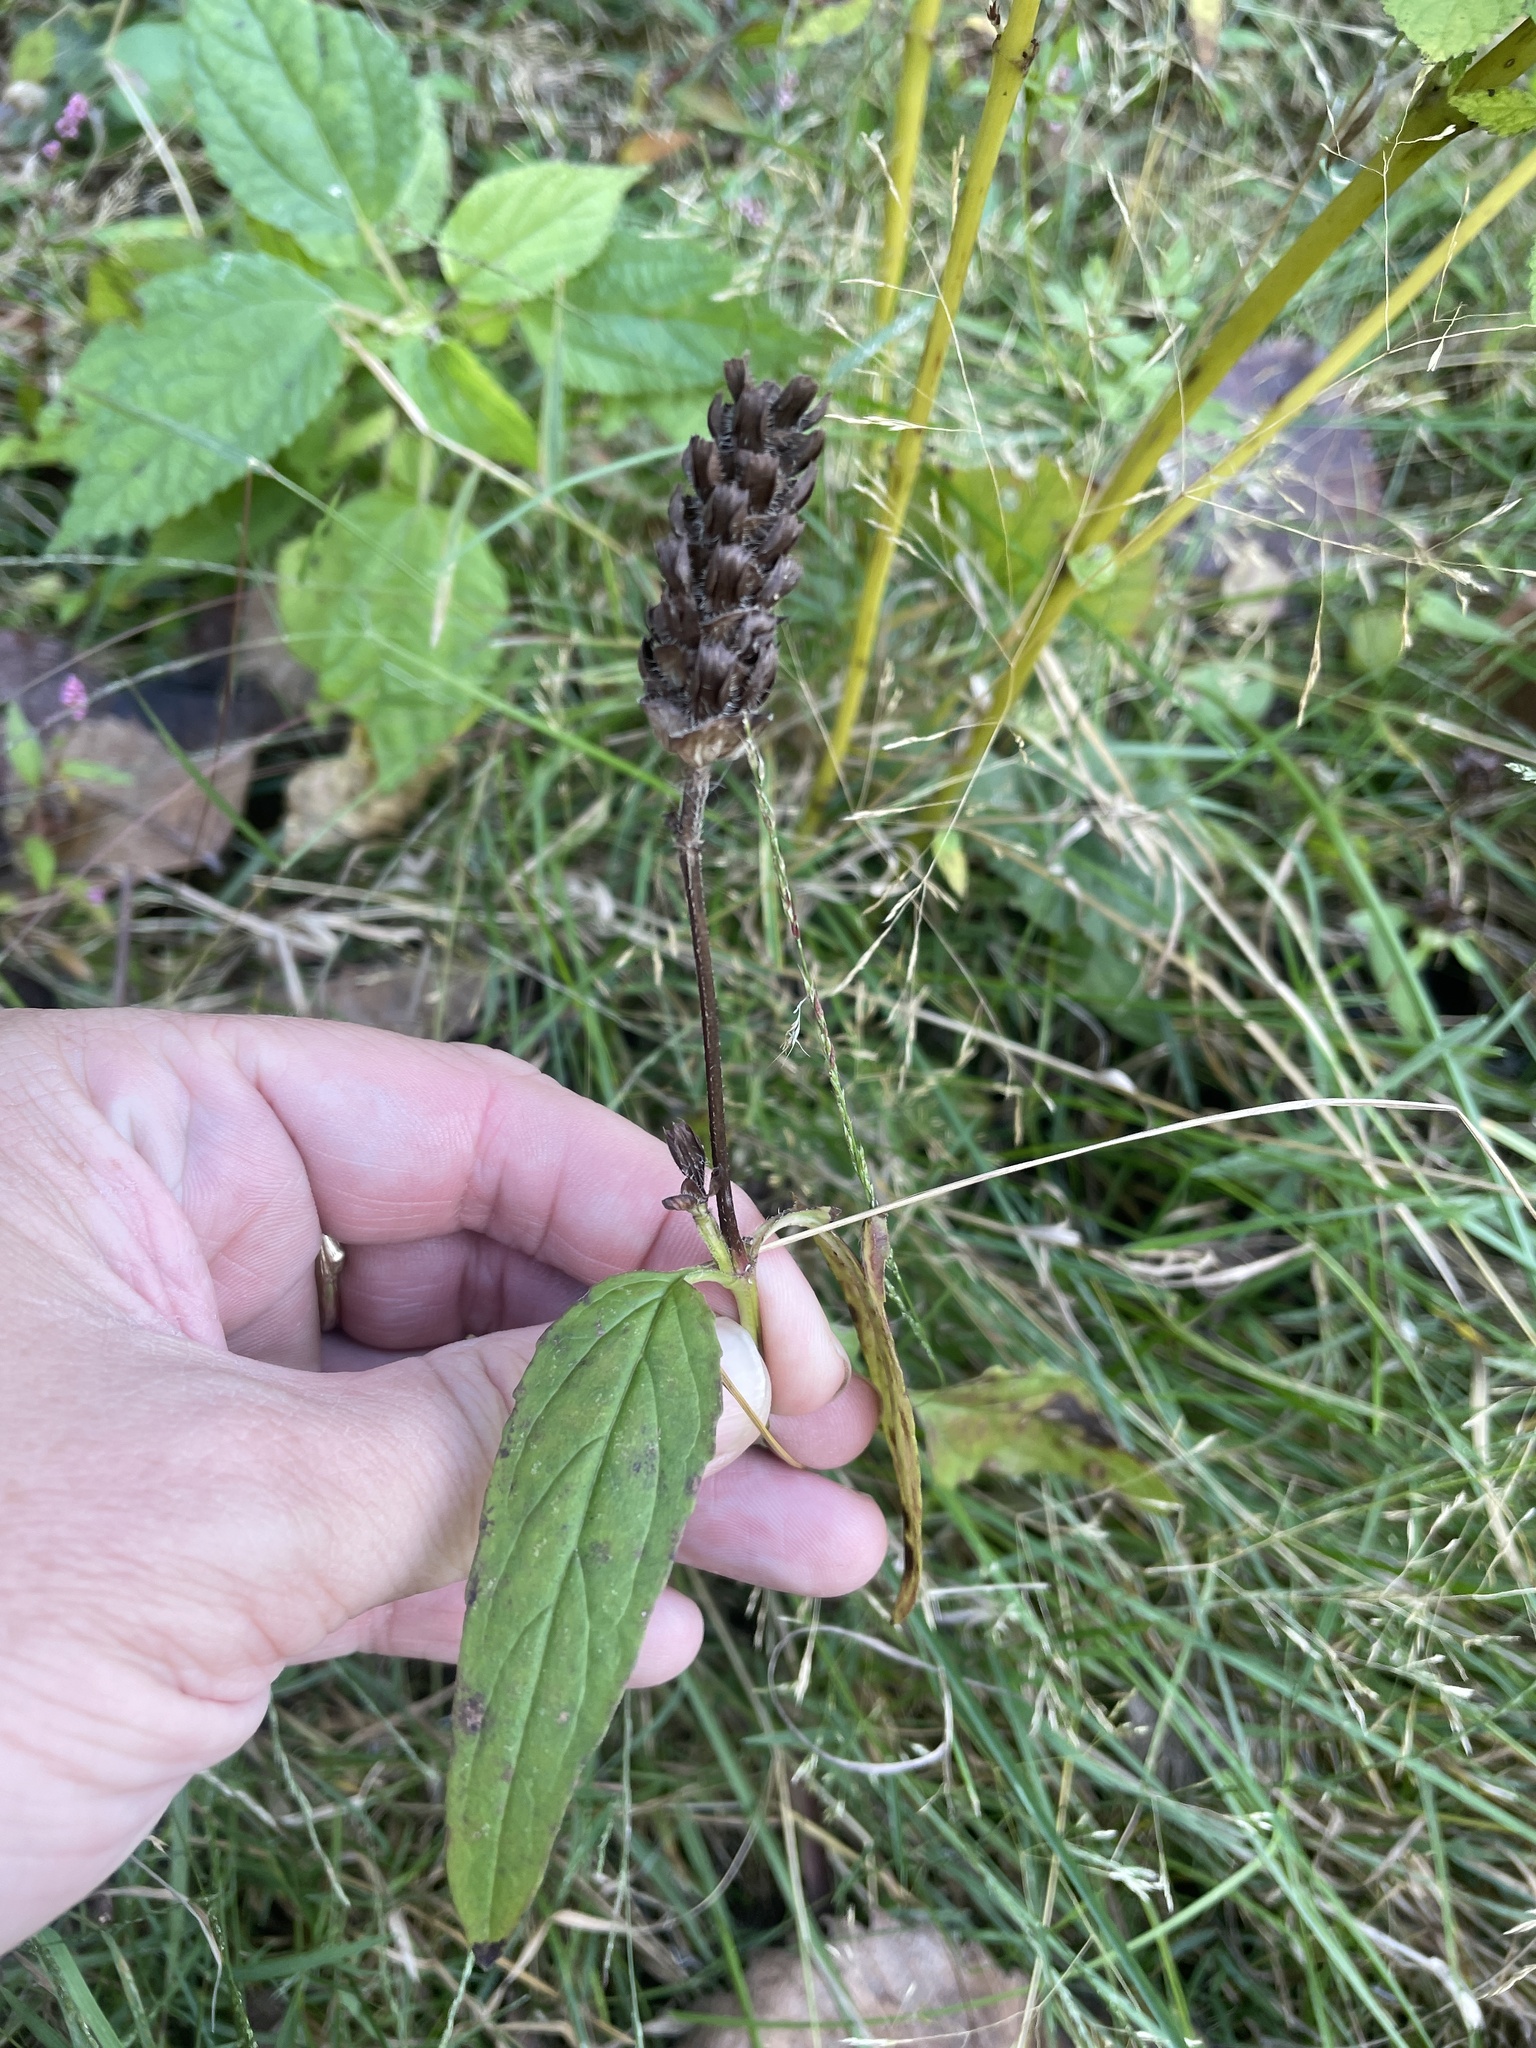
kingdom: Plantae
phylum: Tracheophyta
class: Magnoliopsida
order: Lamiales
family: Lamiaceae
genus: Prunella
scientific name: Prunella vulgaris
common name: Heal-all
